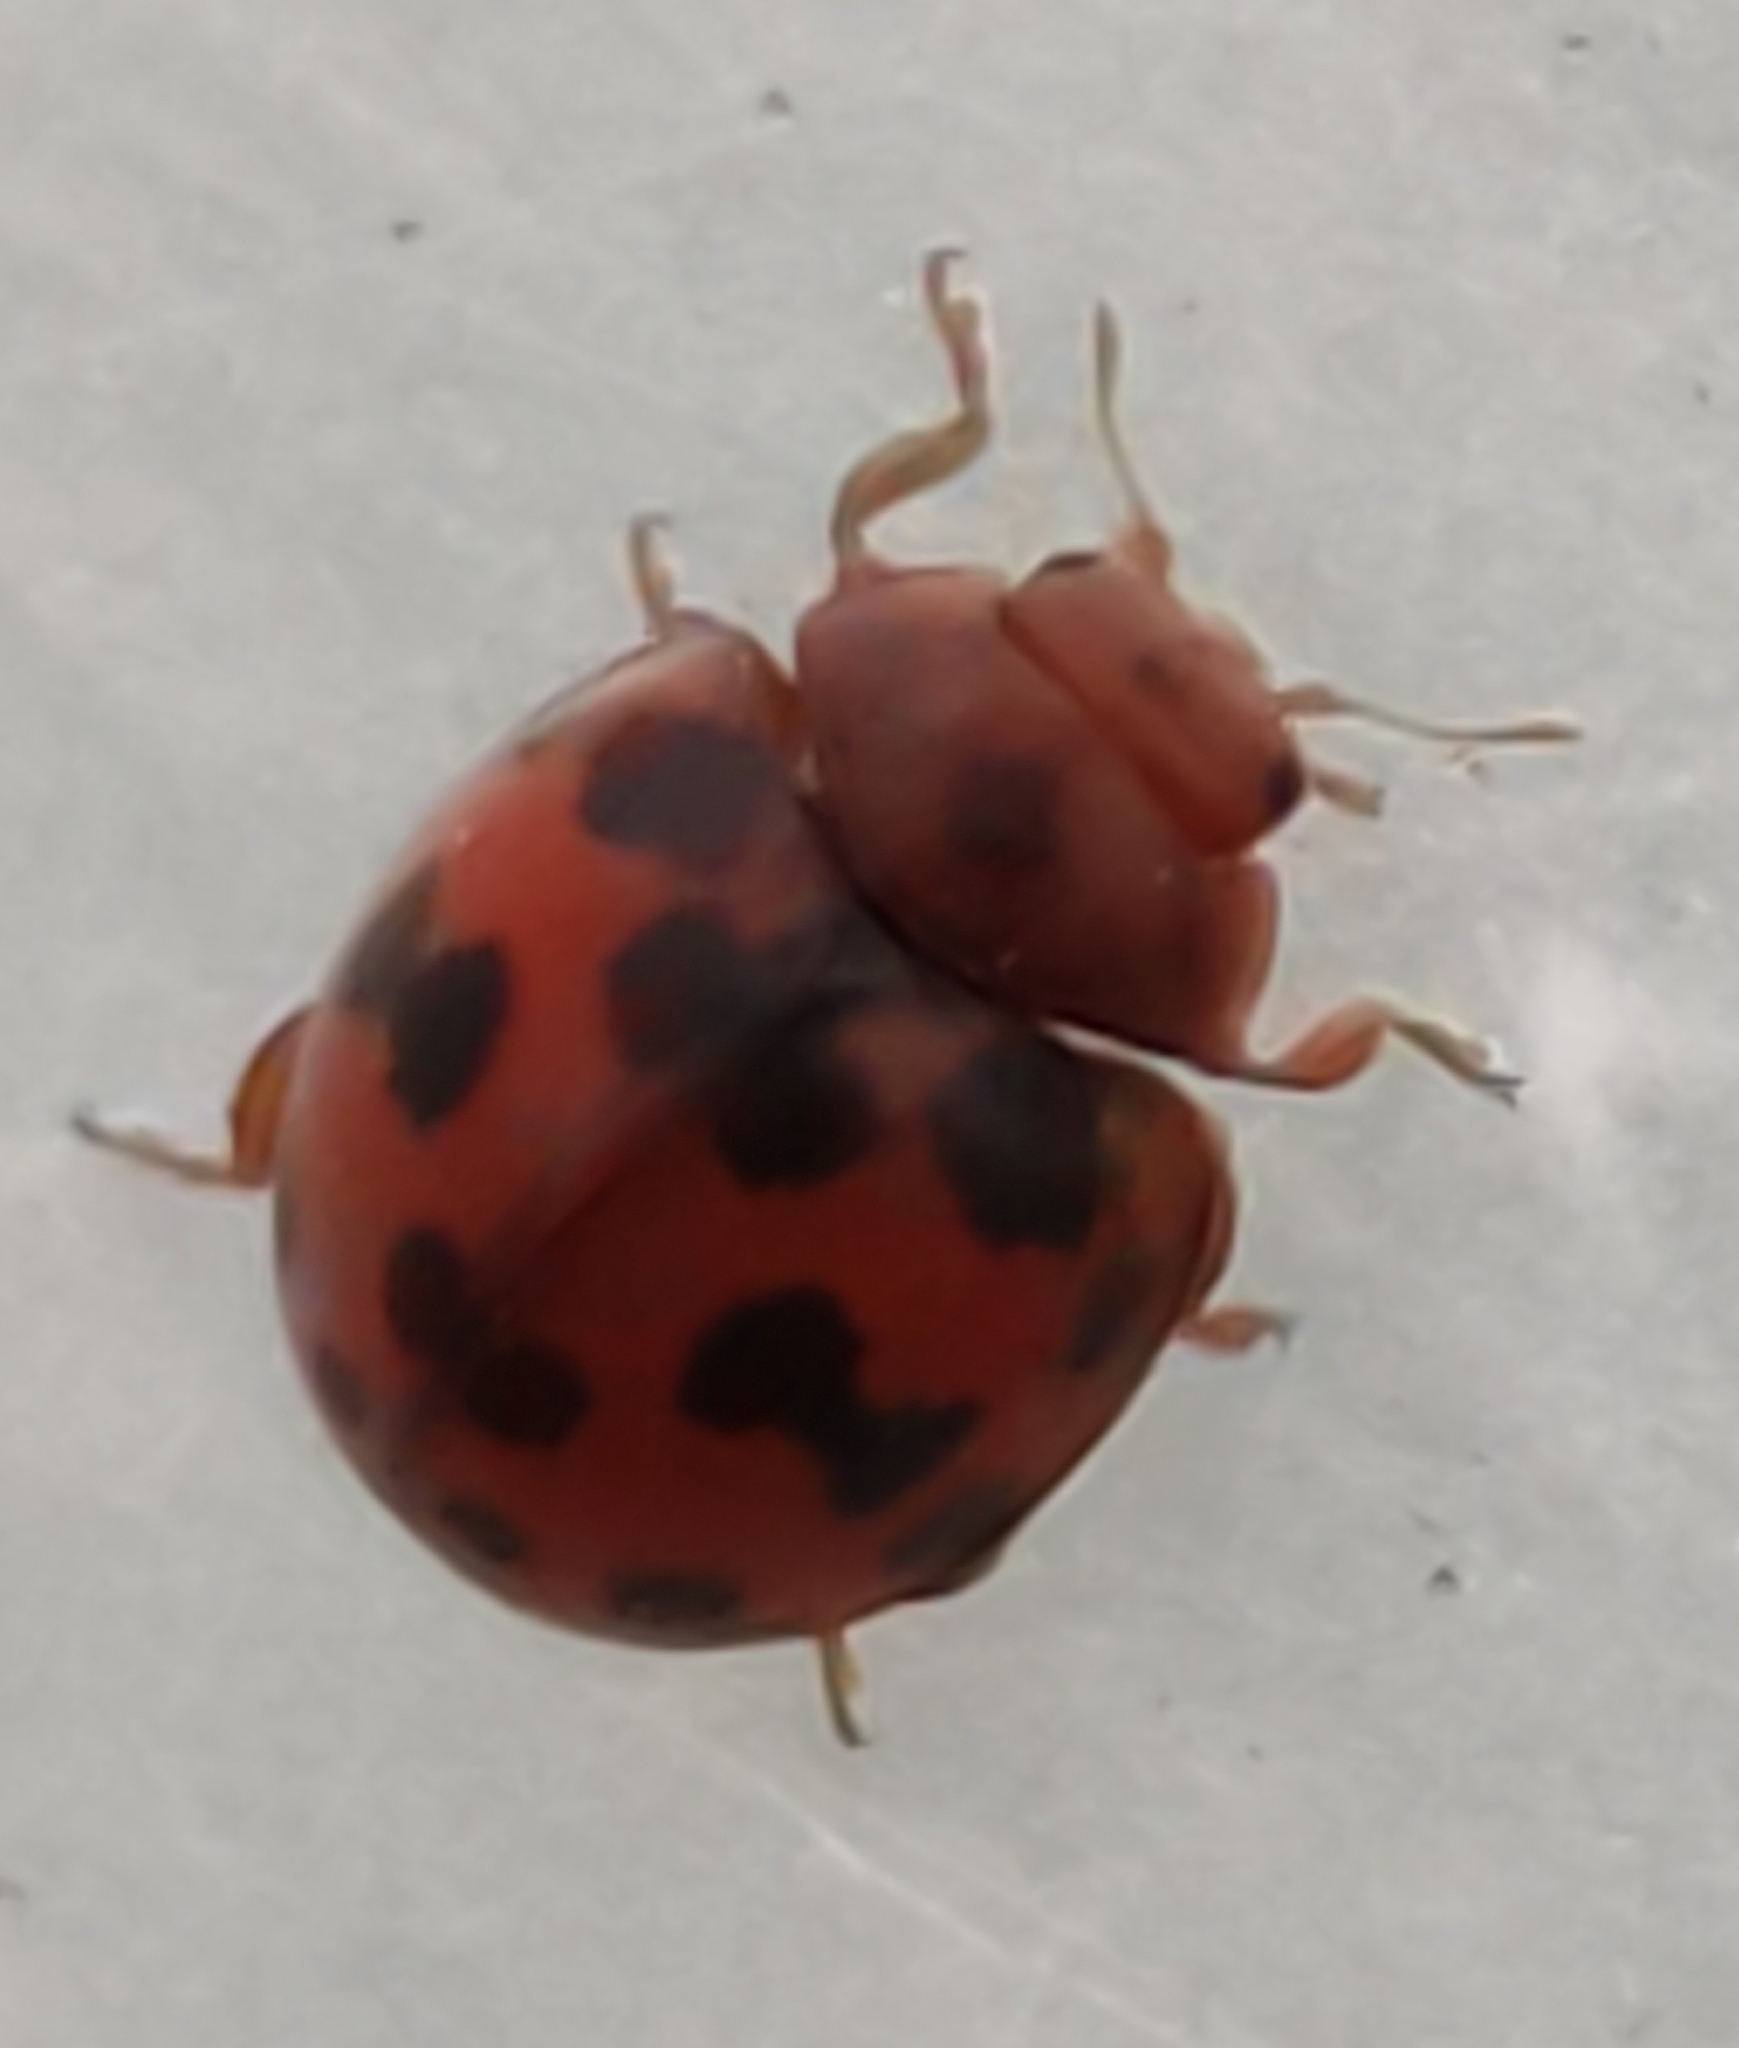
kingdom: Animalia
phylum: Arthropoda
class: Insecta
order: Coleoptera
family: Coccinellidae
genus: Subcoccinella
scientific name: Subcoccinella vigintiquatuorpunctata
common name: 24-spot ladybird
